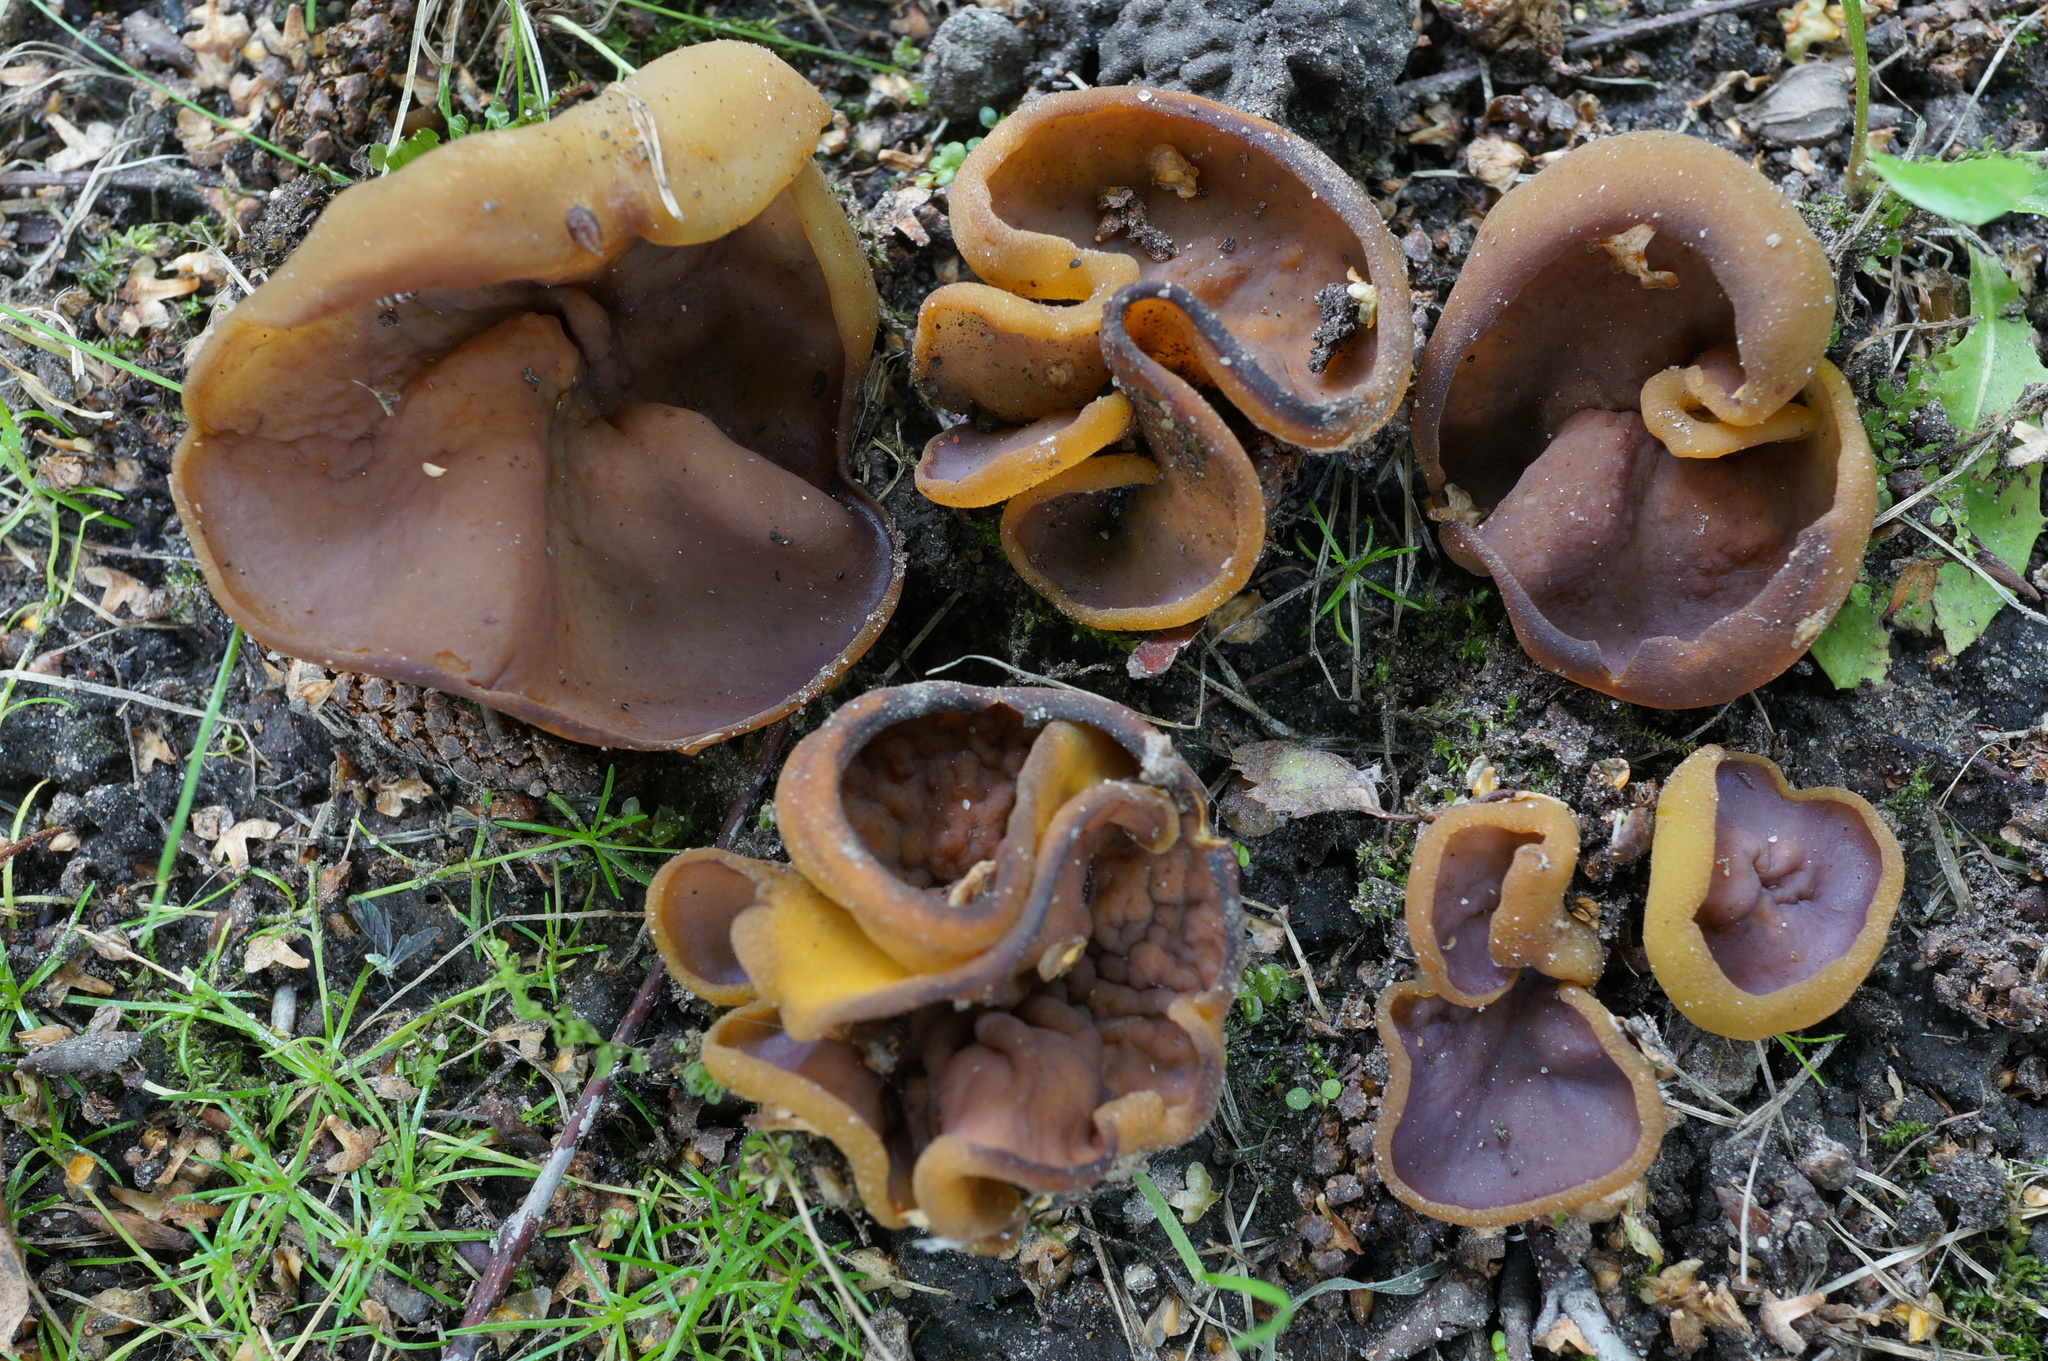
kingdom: Fungi
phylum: Ascomycota
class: Pezizomycetes
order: Pezizales
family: Pezizaceae
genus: Paragalactinia
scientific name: Paragalactinia michelii
